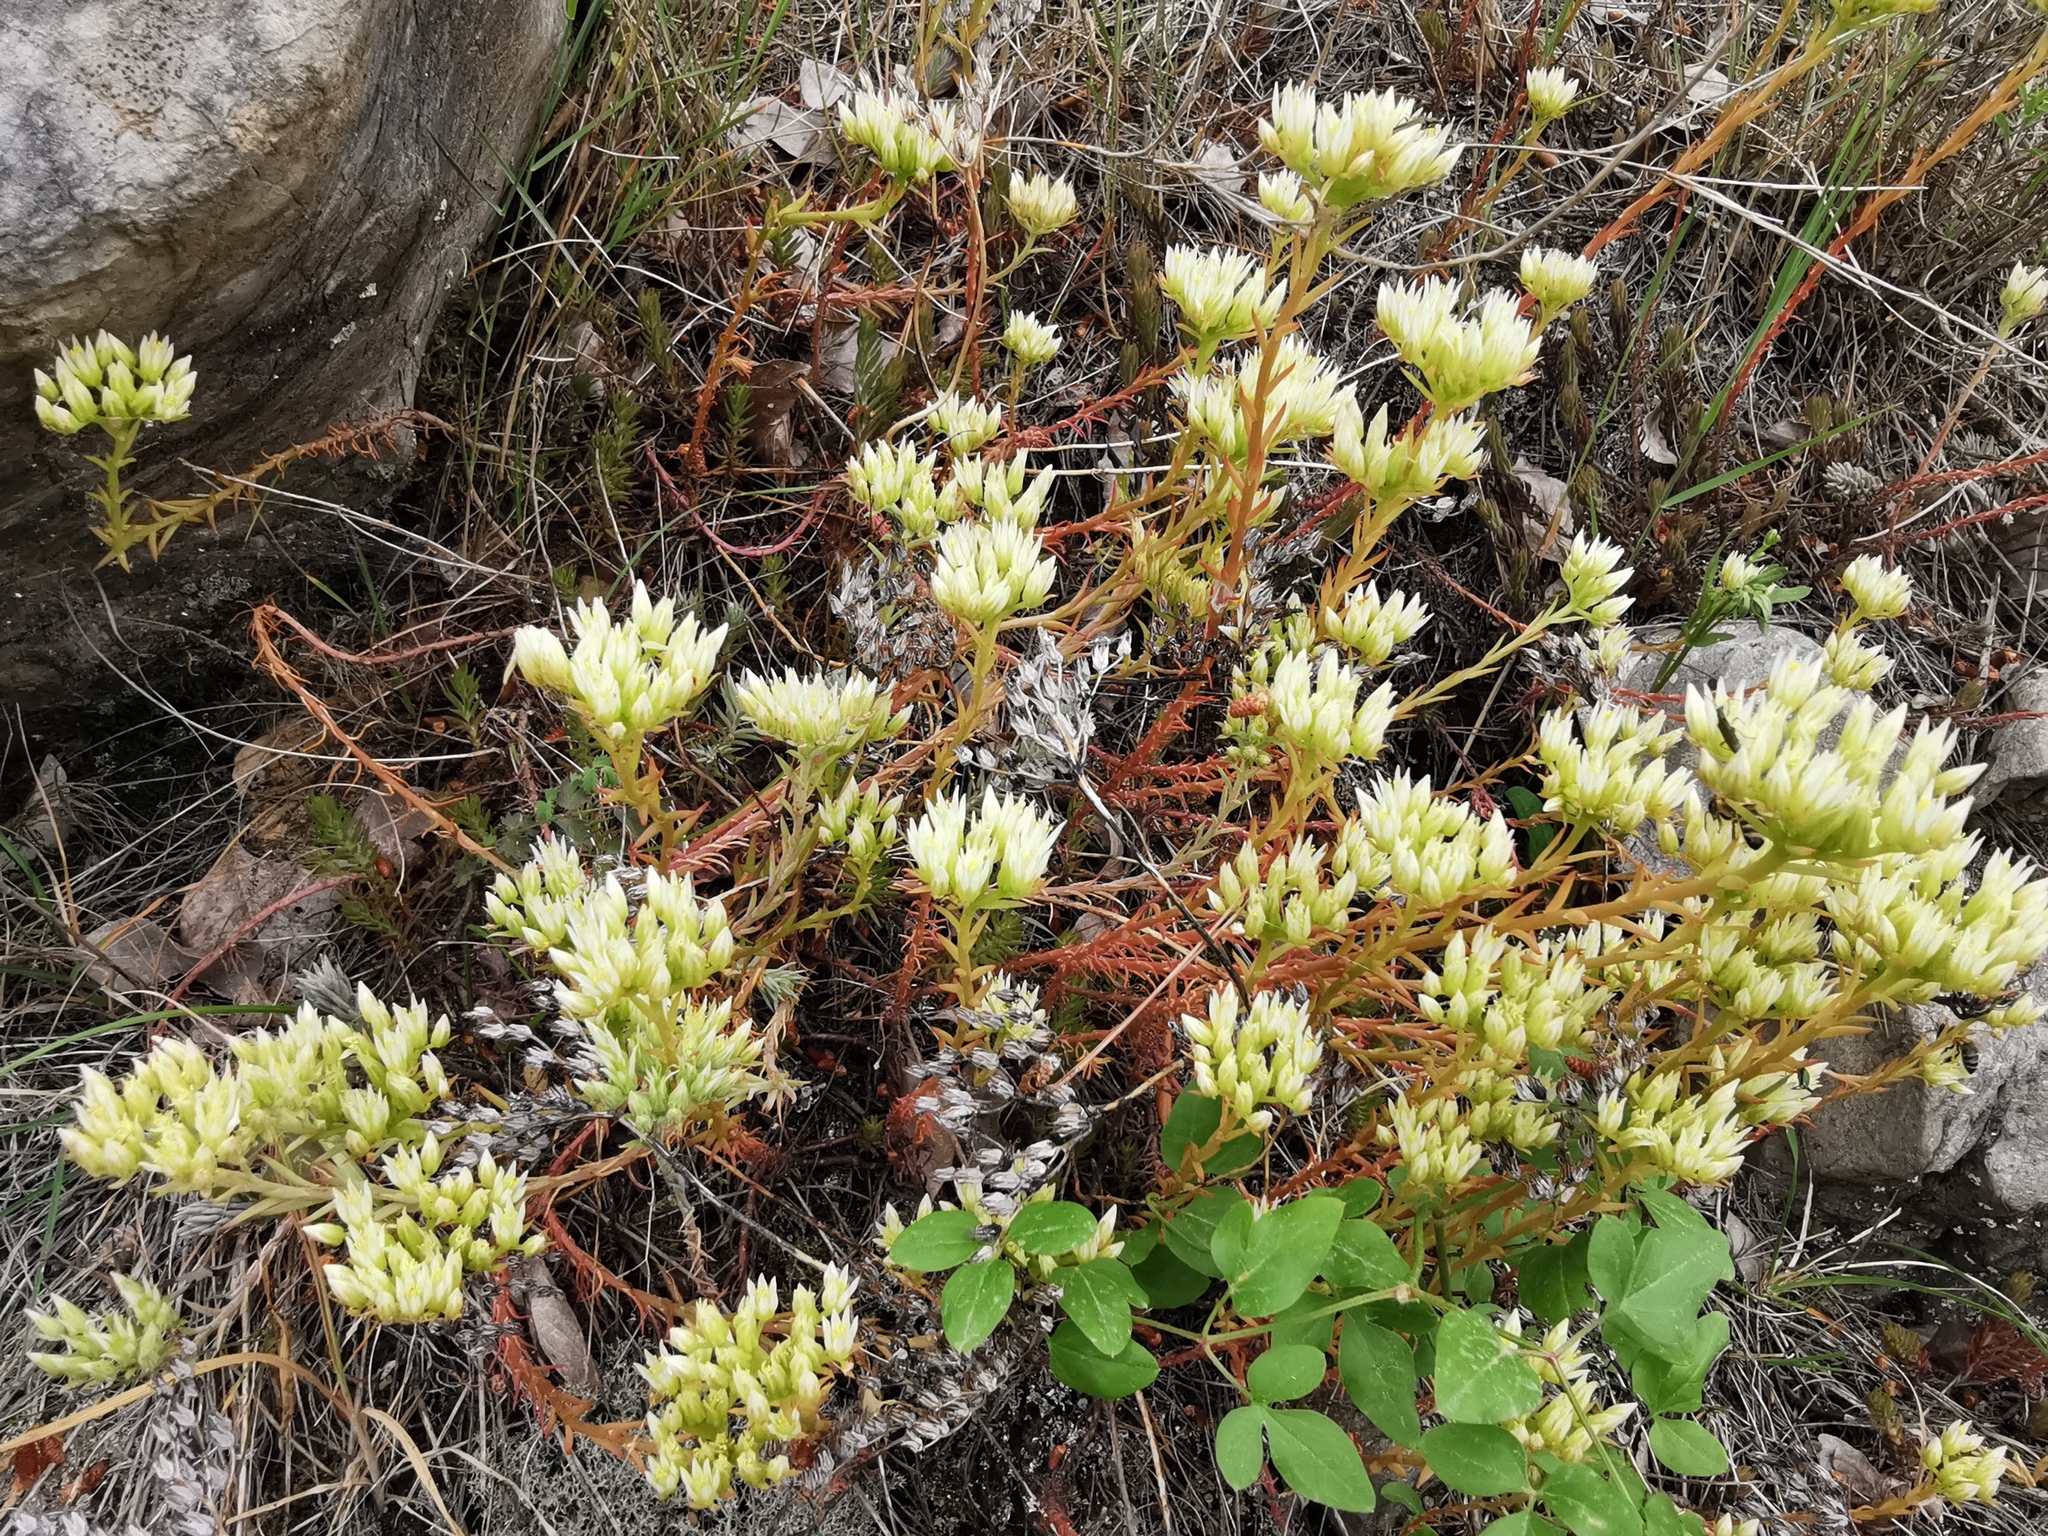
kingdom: Plantae
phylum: Tracheophyta
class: Magnoliopsida
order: Saxifragales
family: Crassulaceae
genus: Petrosedum
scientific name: Petrosedum ochroleucum
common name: European stonecrop
